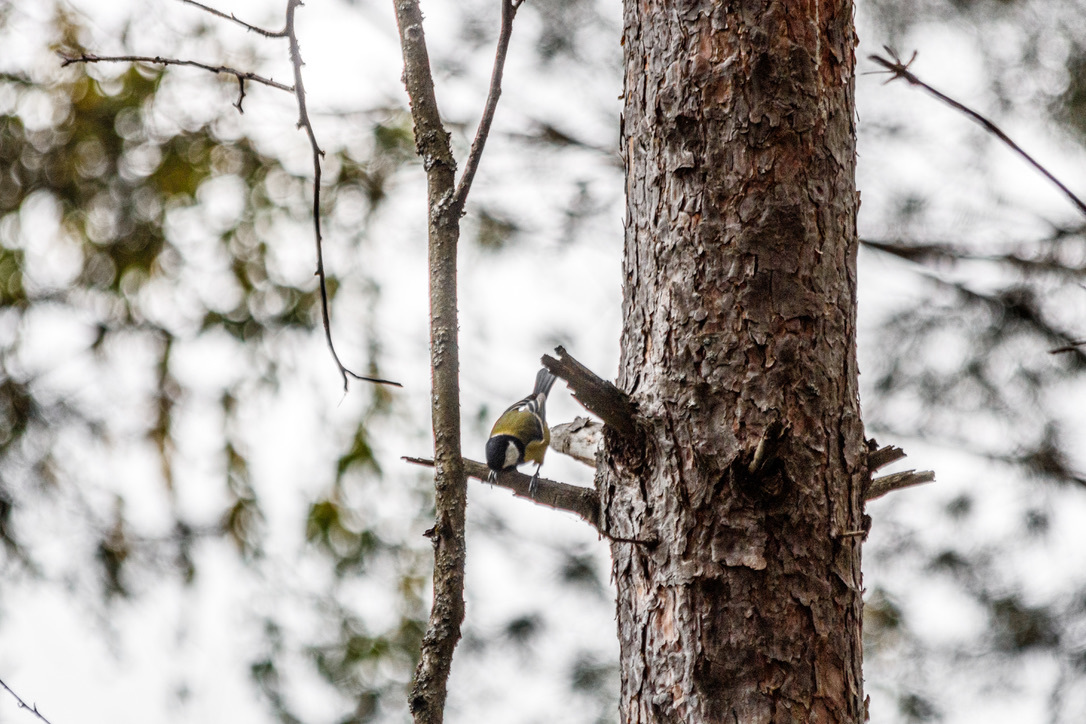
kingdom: Animalia
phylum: Chordata
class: Aves
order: Passeriformes
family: Paridae
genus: Parus
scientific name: Parus major
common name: Great tit
